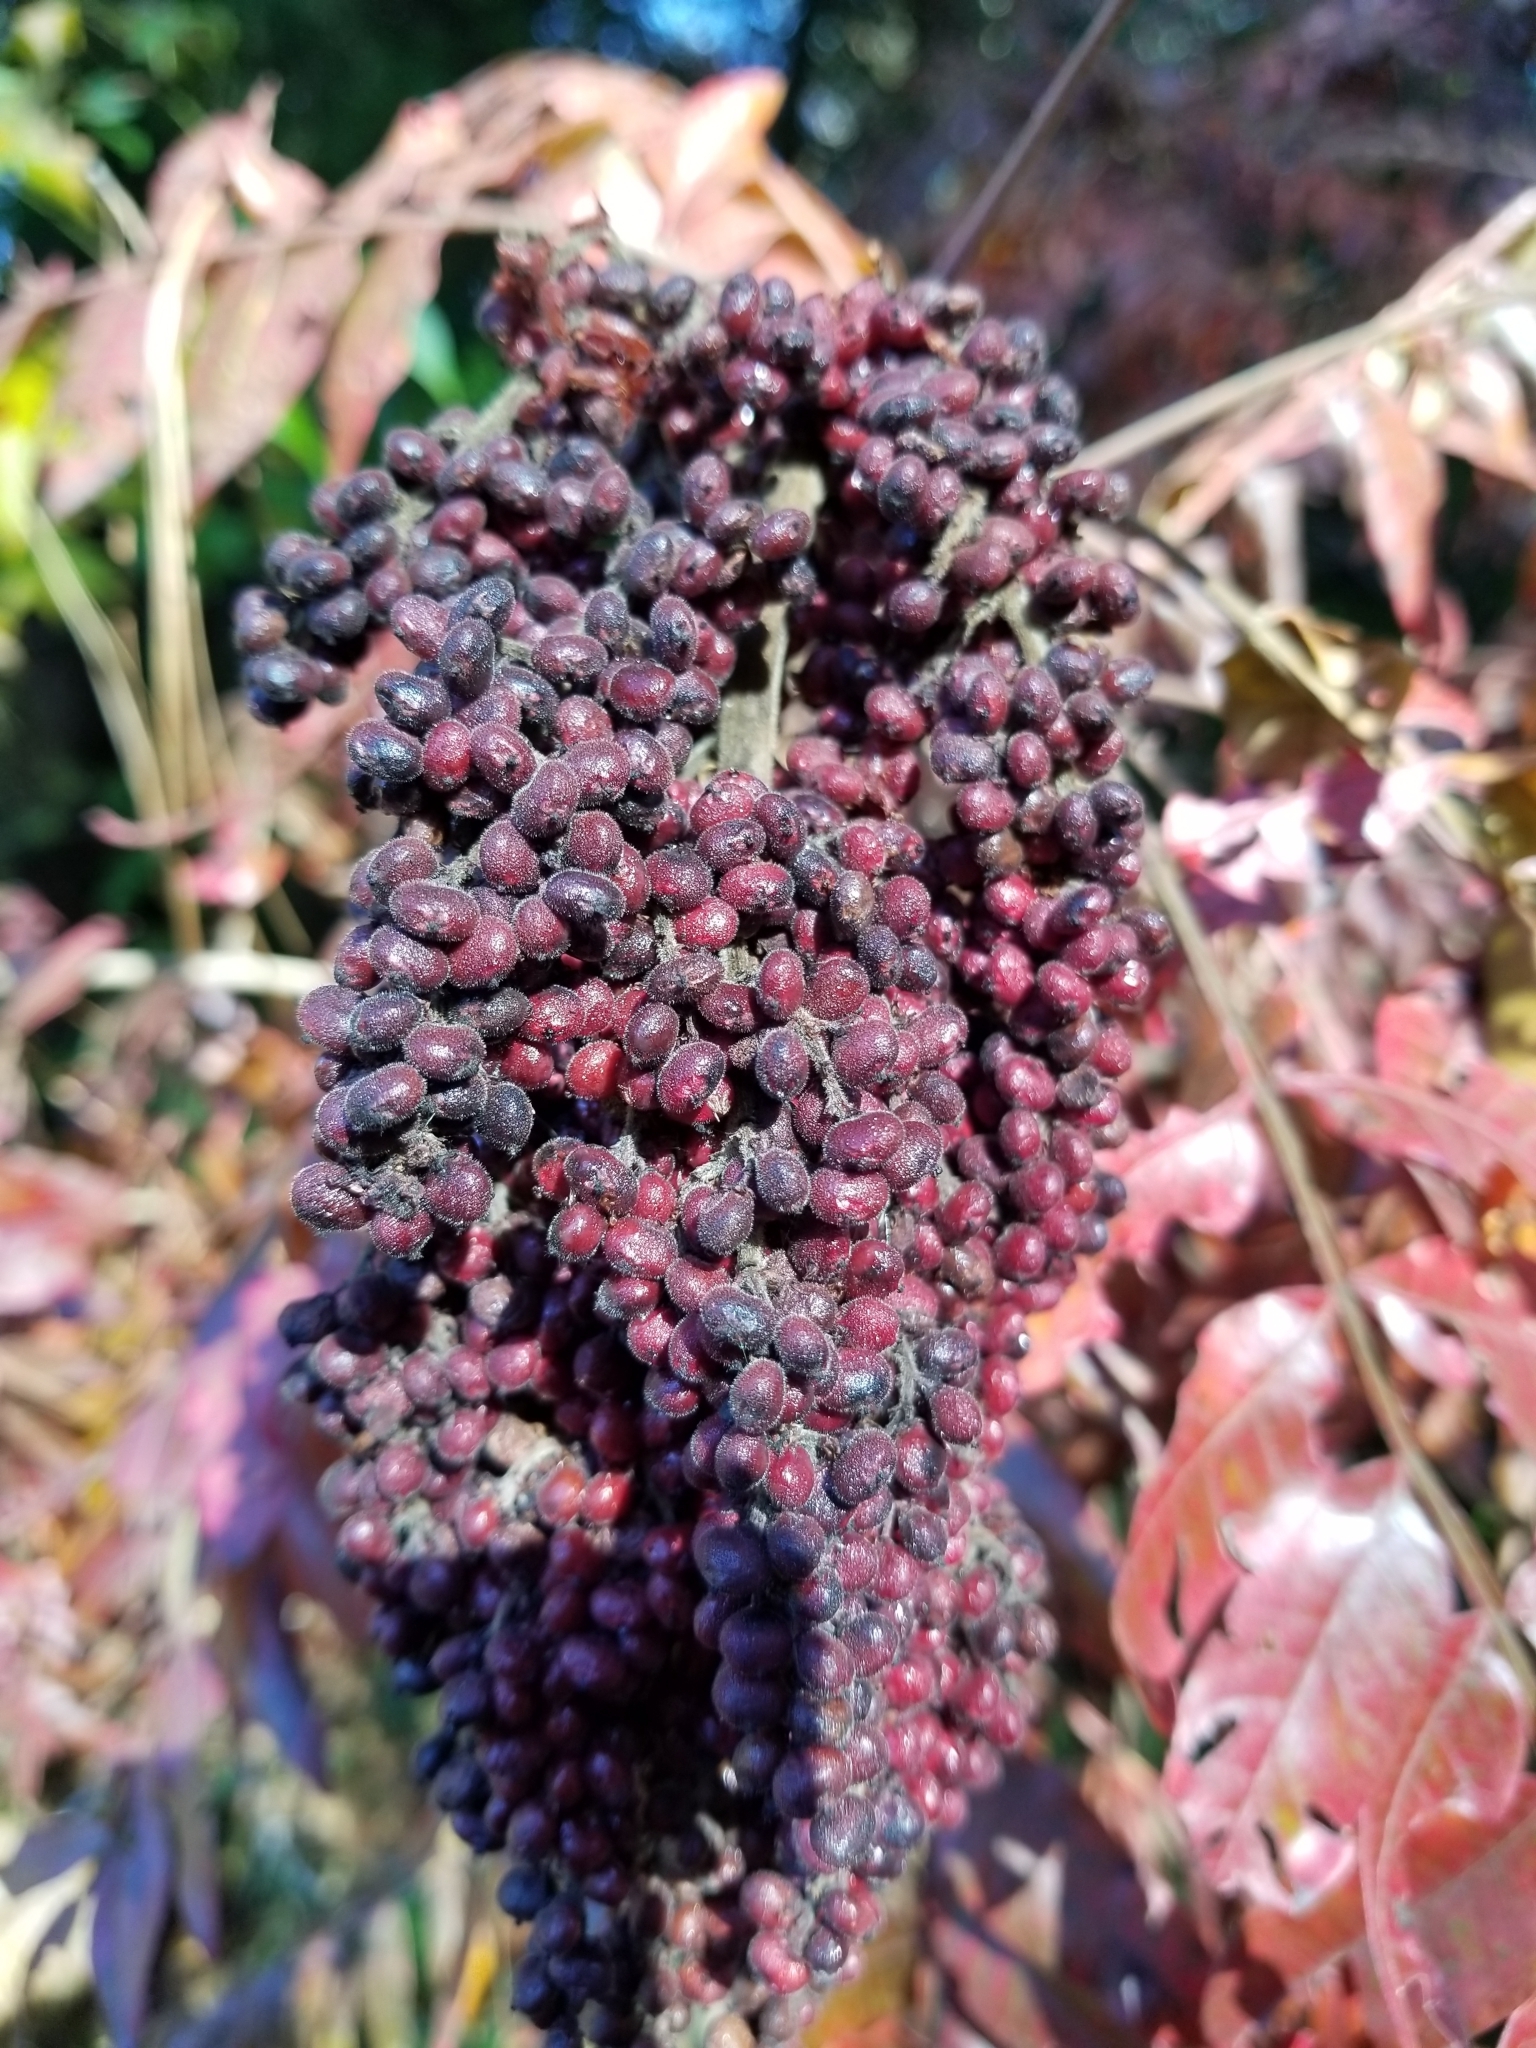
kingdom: Plantae
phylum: Tracheophyta
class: Magnoliopsida
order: Sapindales
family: Anacardiaceae
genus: Rhus
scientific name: Rhus copallina
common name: Shining sumac
